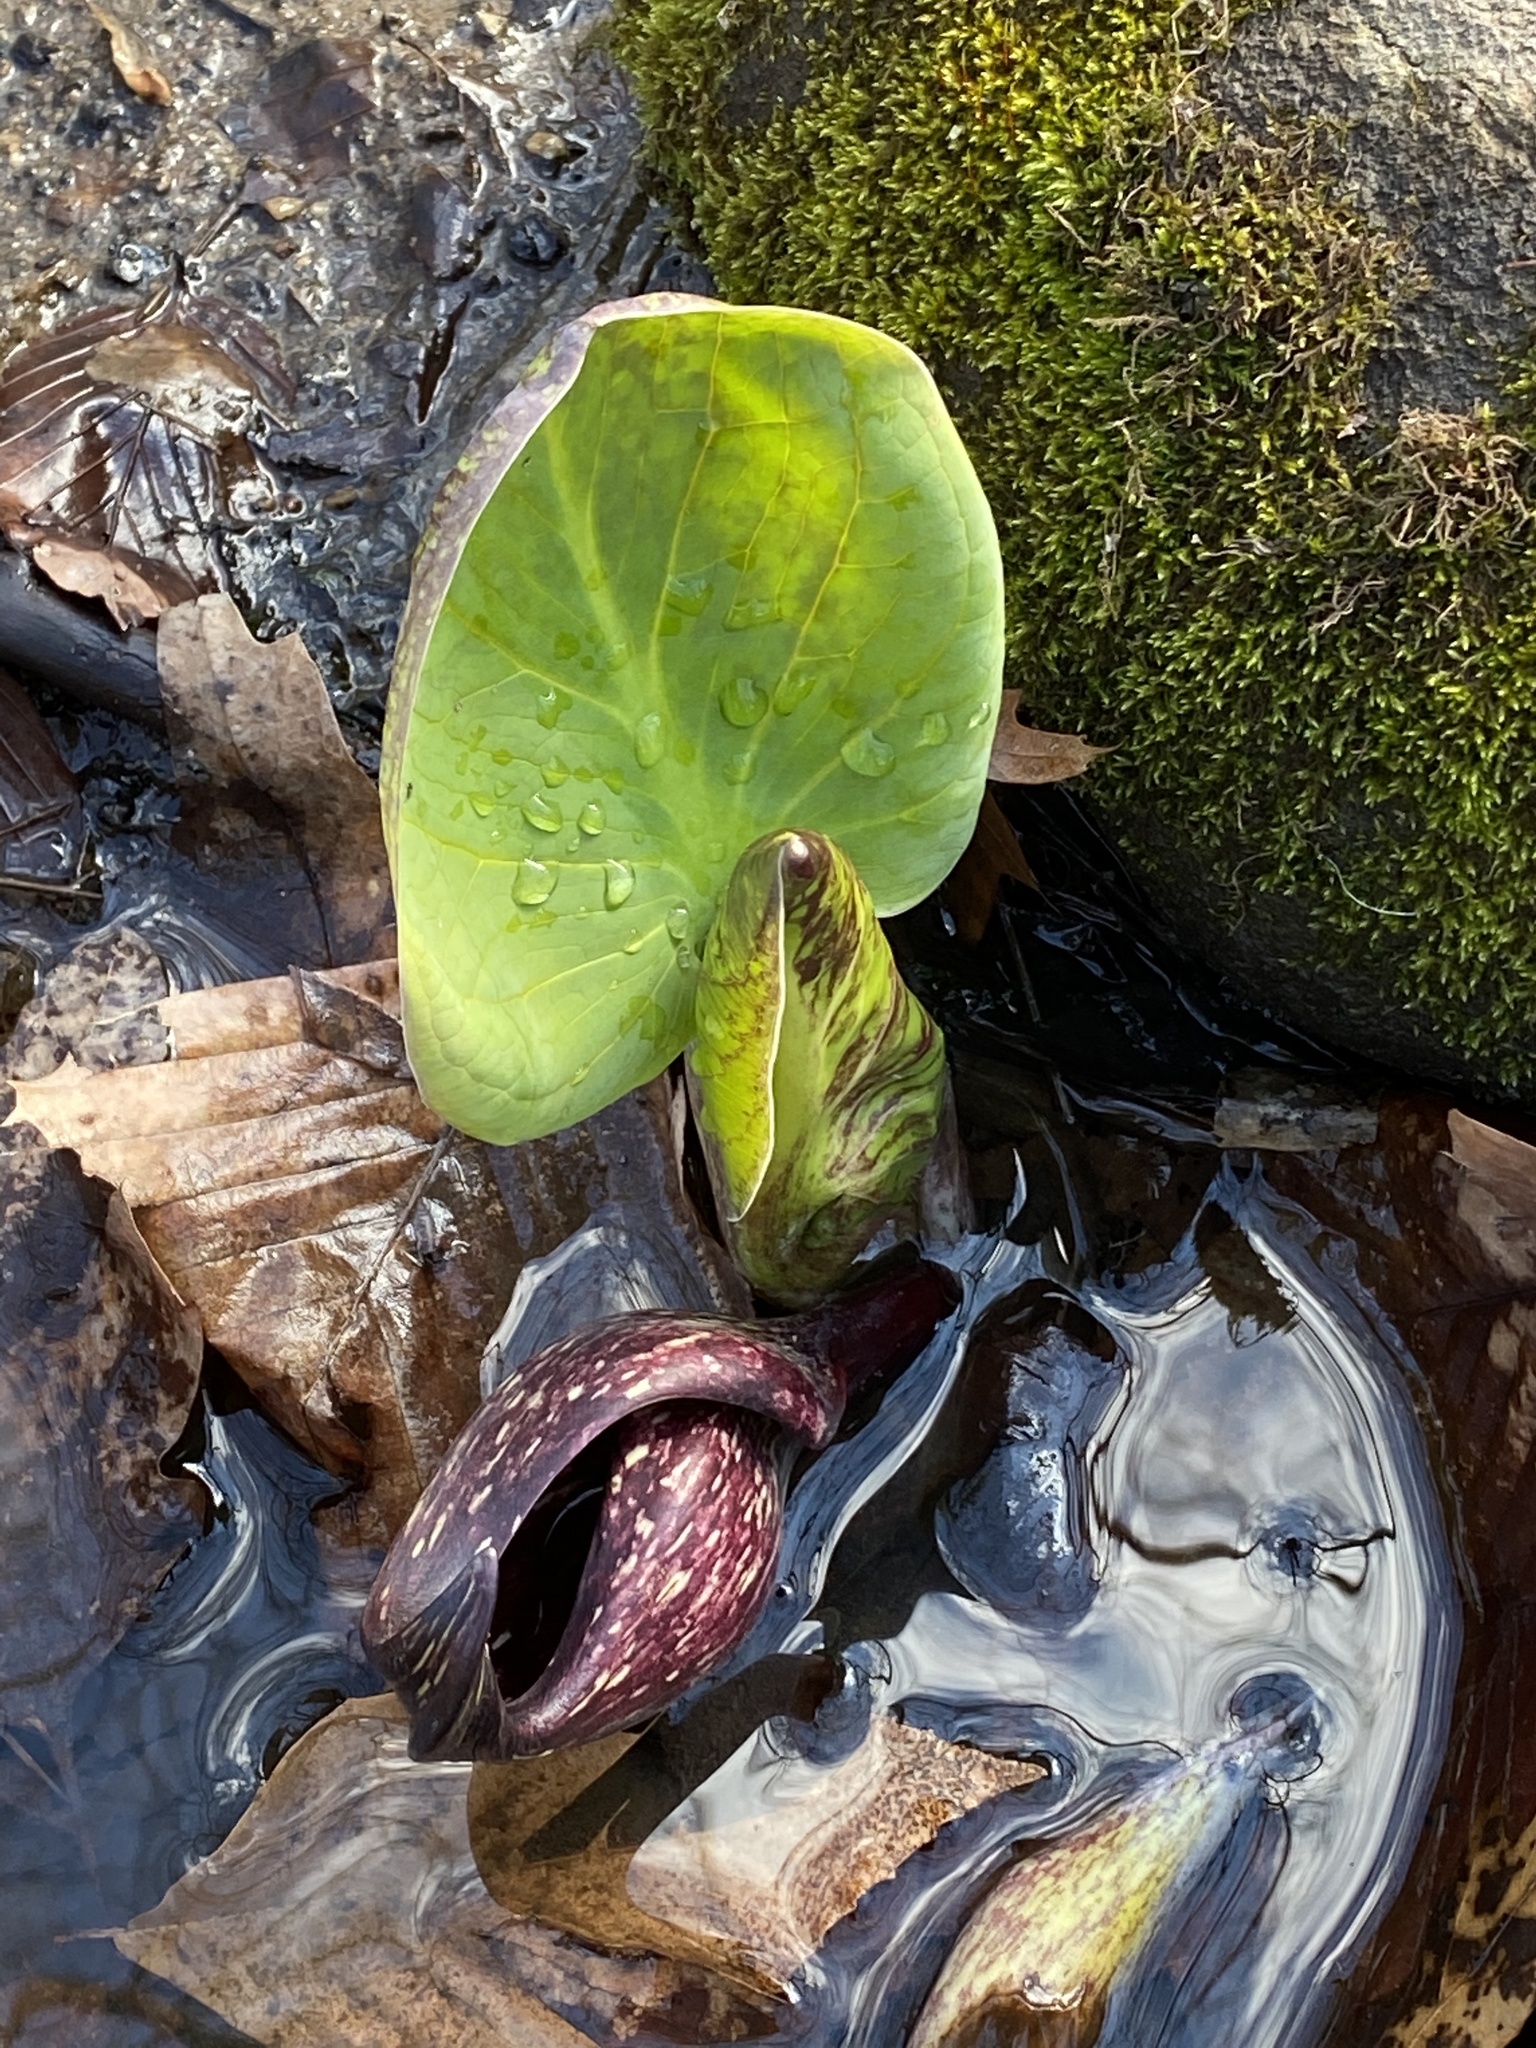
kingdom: Plantae
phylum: Tracheophyta
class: Liliopsida
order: Alismatales
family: Araceae
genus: Symplocarpus
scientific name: Symplocarpus foetidus
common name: Eastern skunk cabbage
